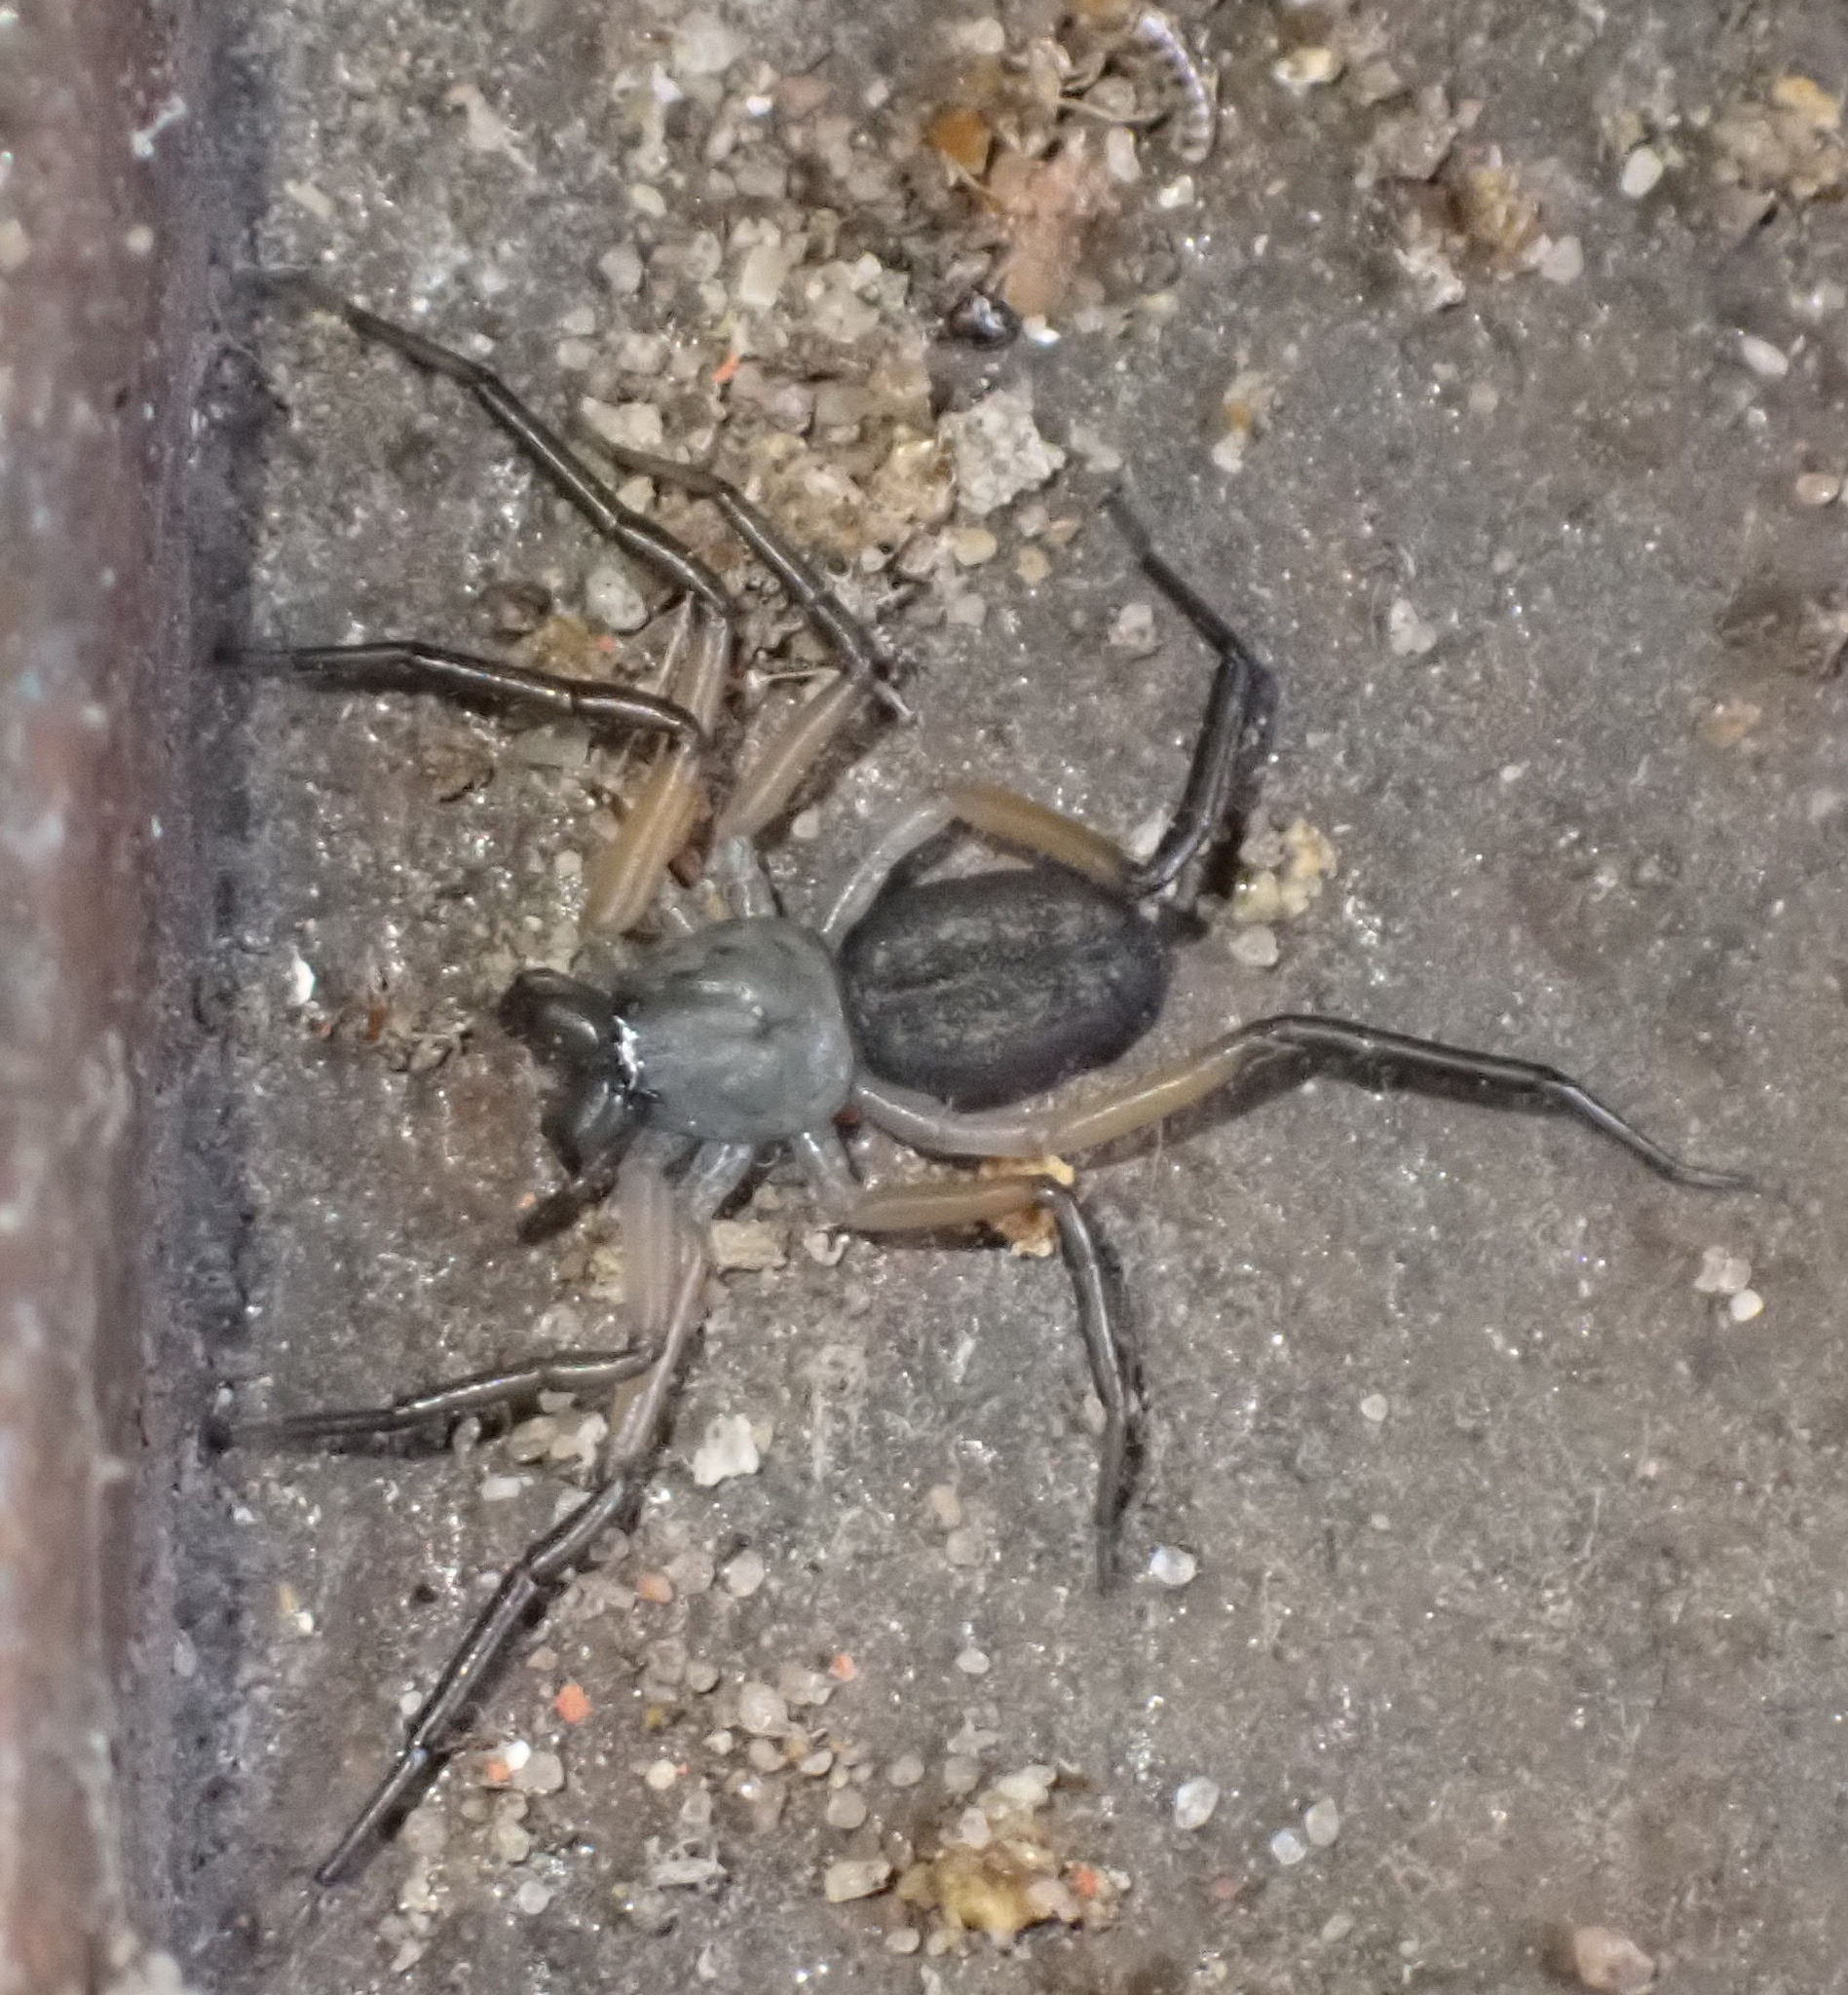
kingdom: Animalia
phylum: Arthropoda
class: Arachnida
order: Araneae
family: Trochanteriidae
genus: Platyoides
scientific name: Platyoides walteri
